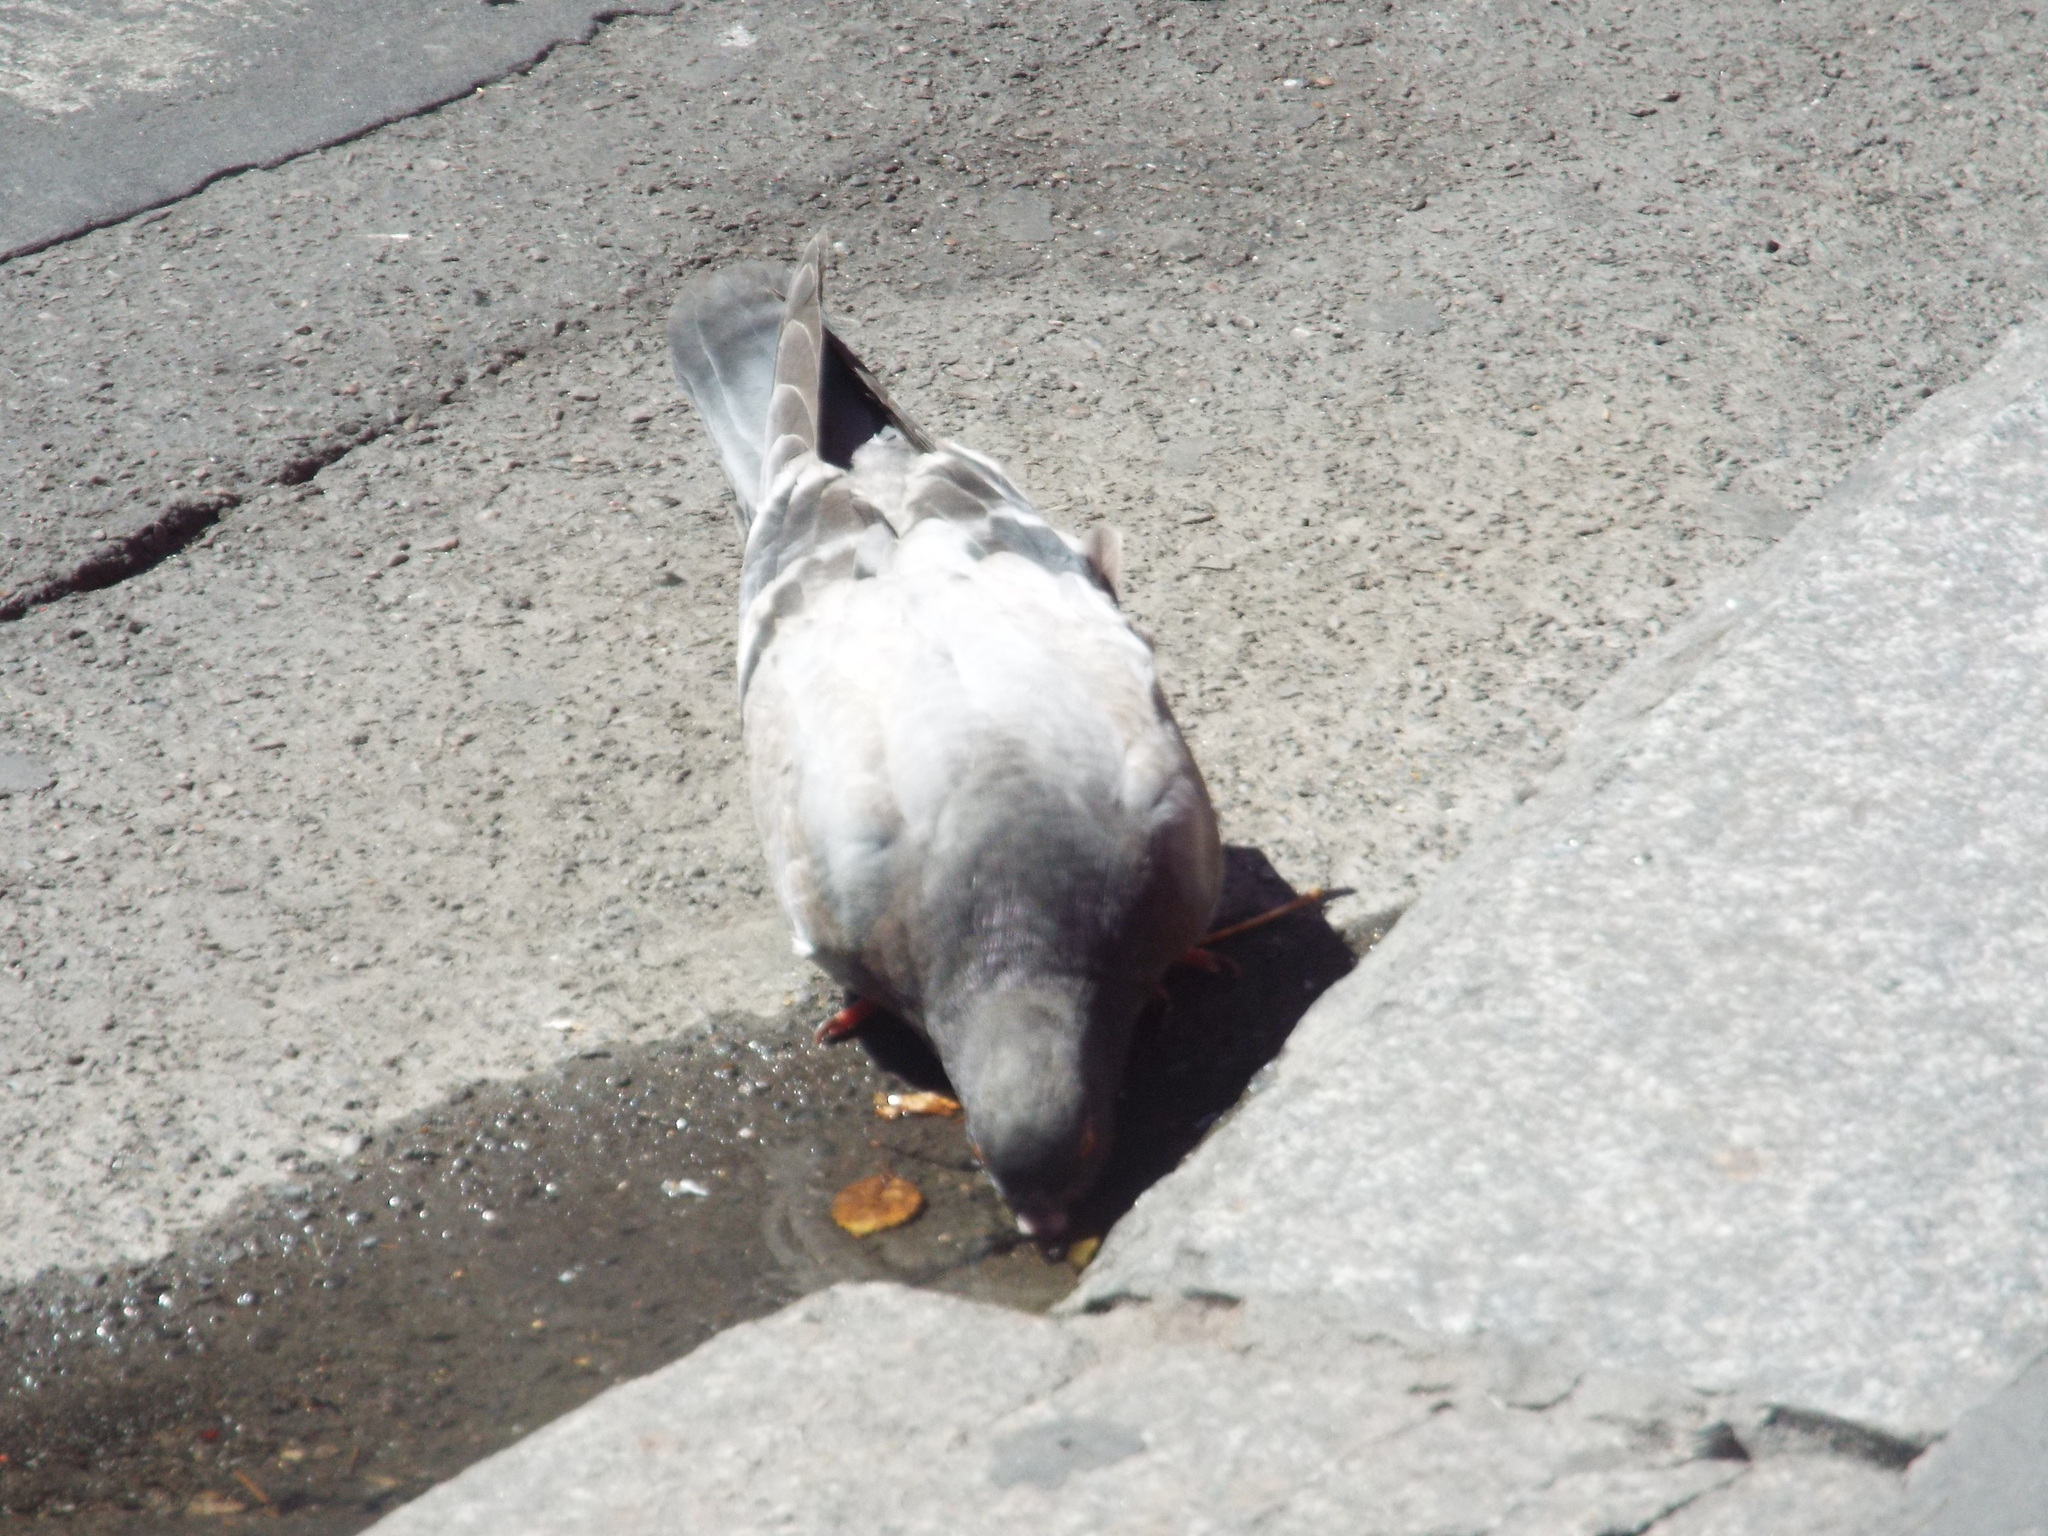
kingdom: Animalia
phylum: Chordata
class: Aves
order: Columbiformes
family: Columbidae
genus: Columba
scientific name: Columba livia
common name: Rock pigeon
